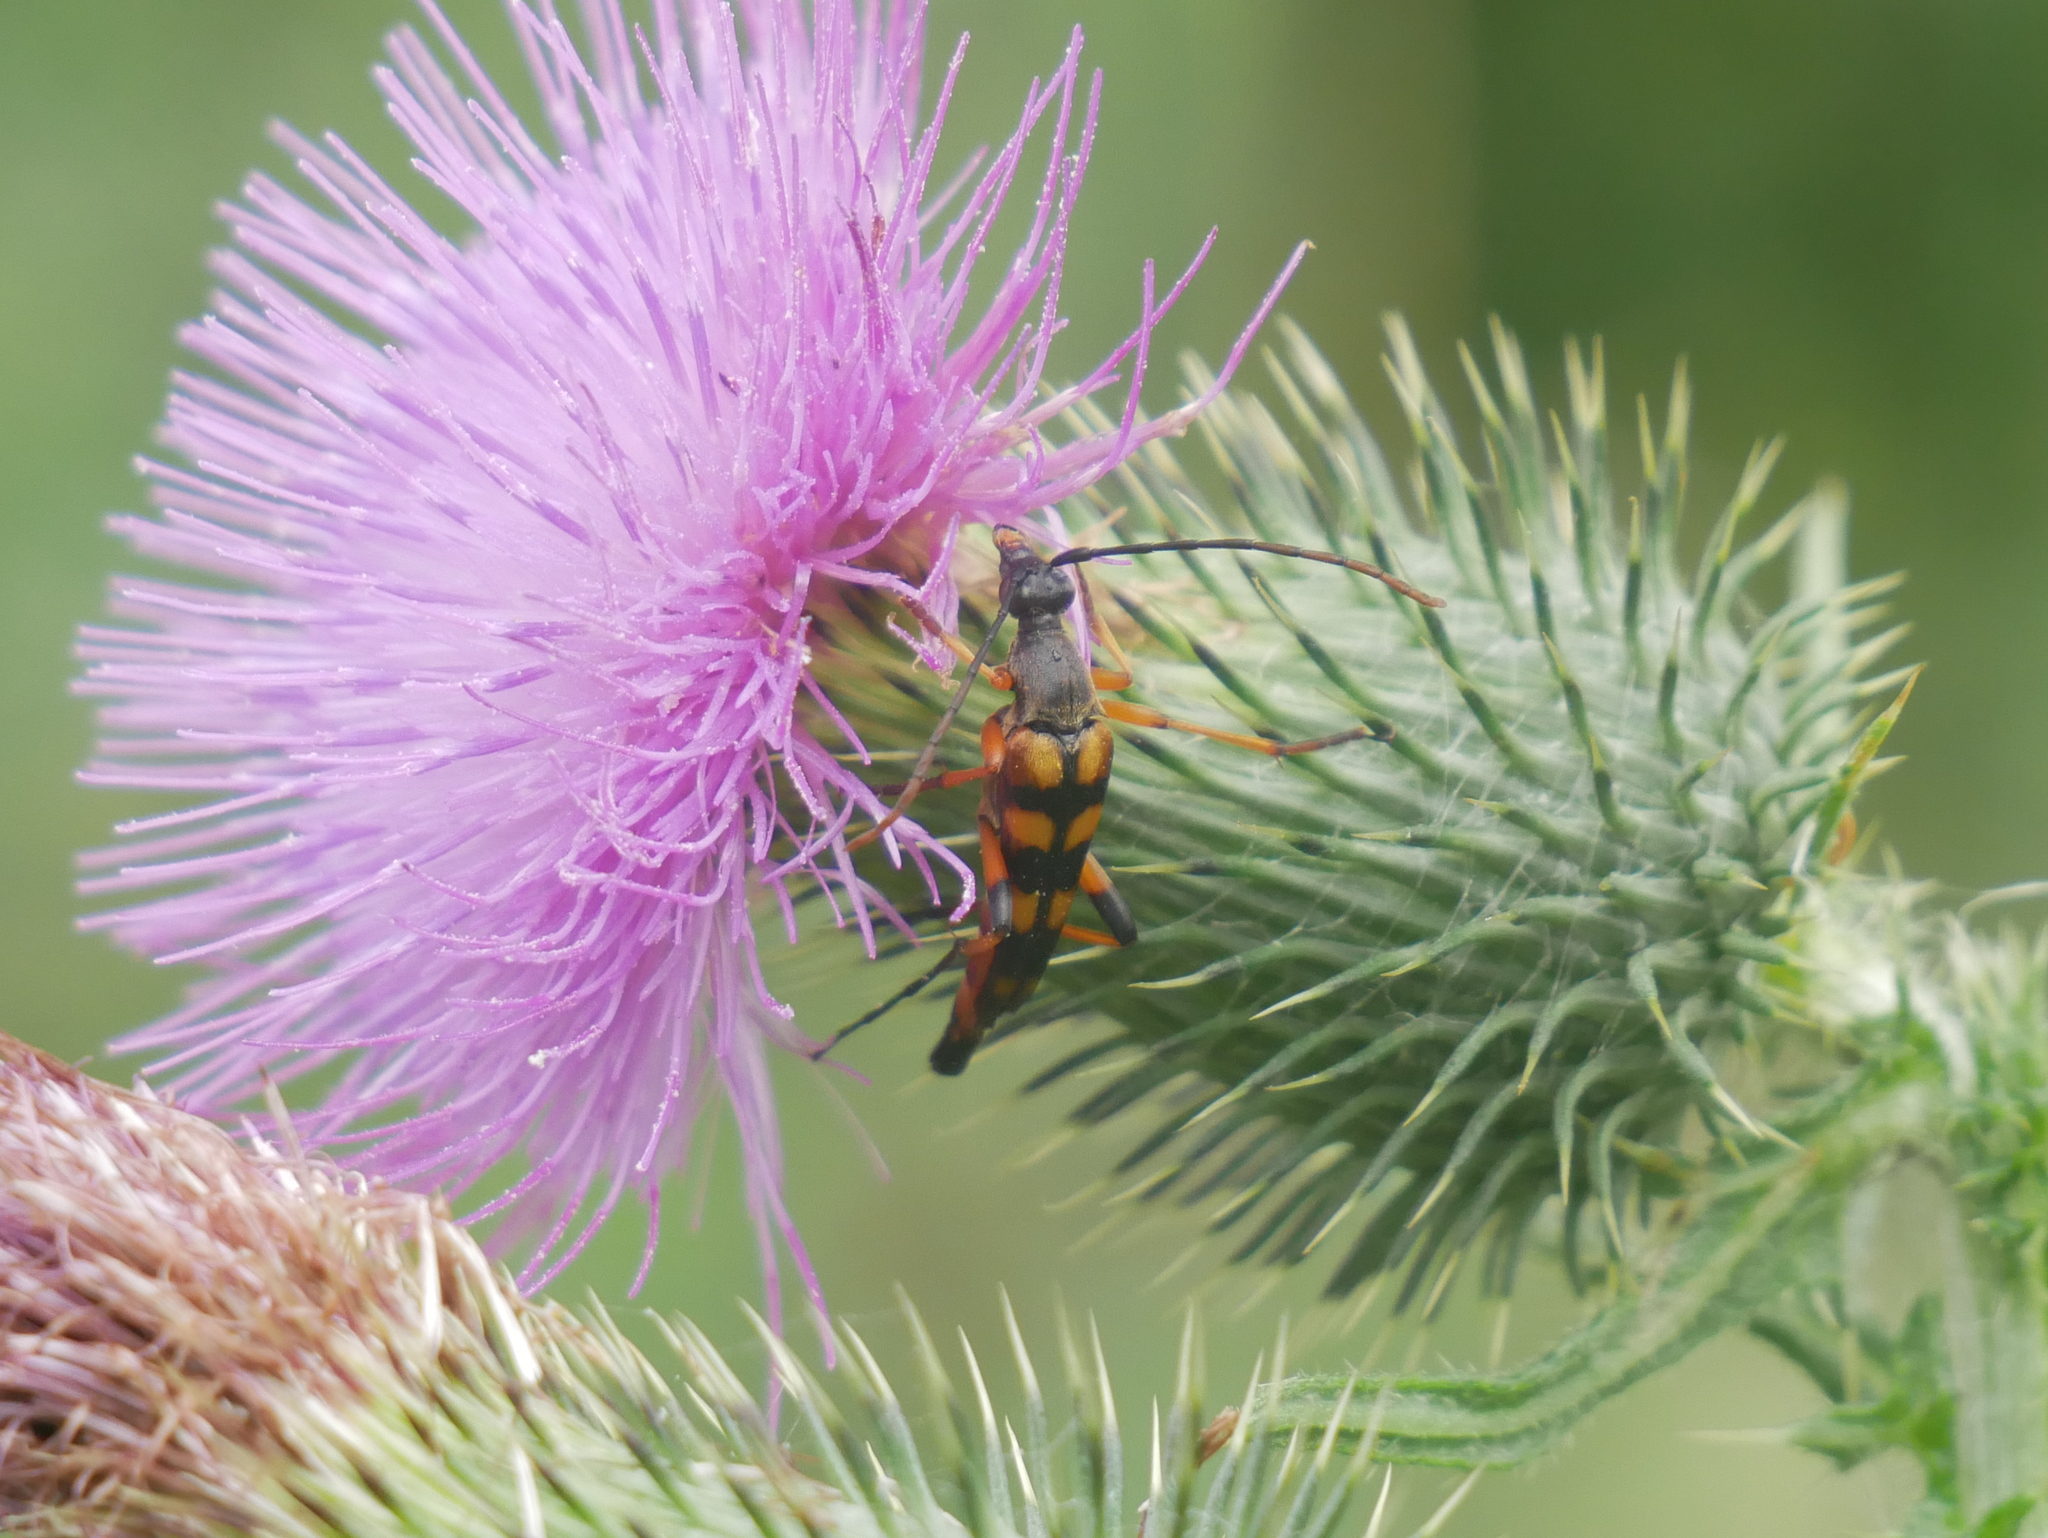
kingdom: Animalia
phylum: Arthropoda
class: Insecta
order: Coleoptera
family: Cerambycidae
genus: Strangalia
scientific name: Strangalia attenuata
